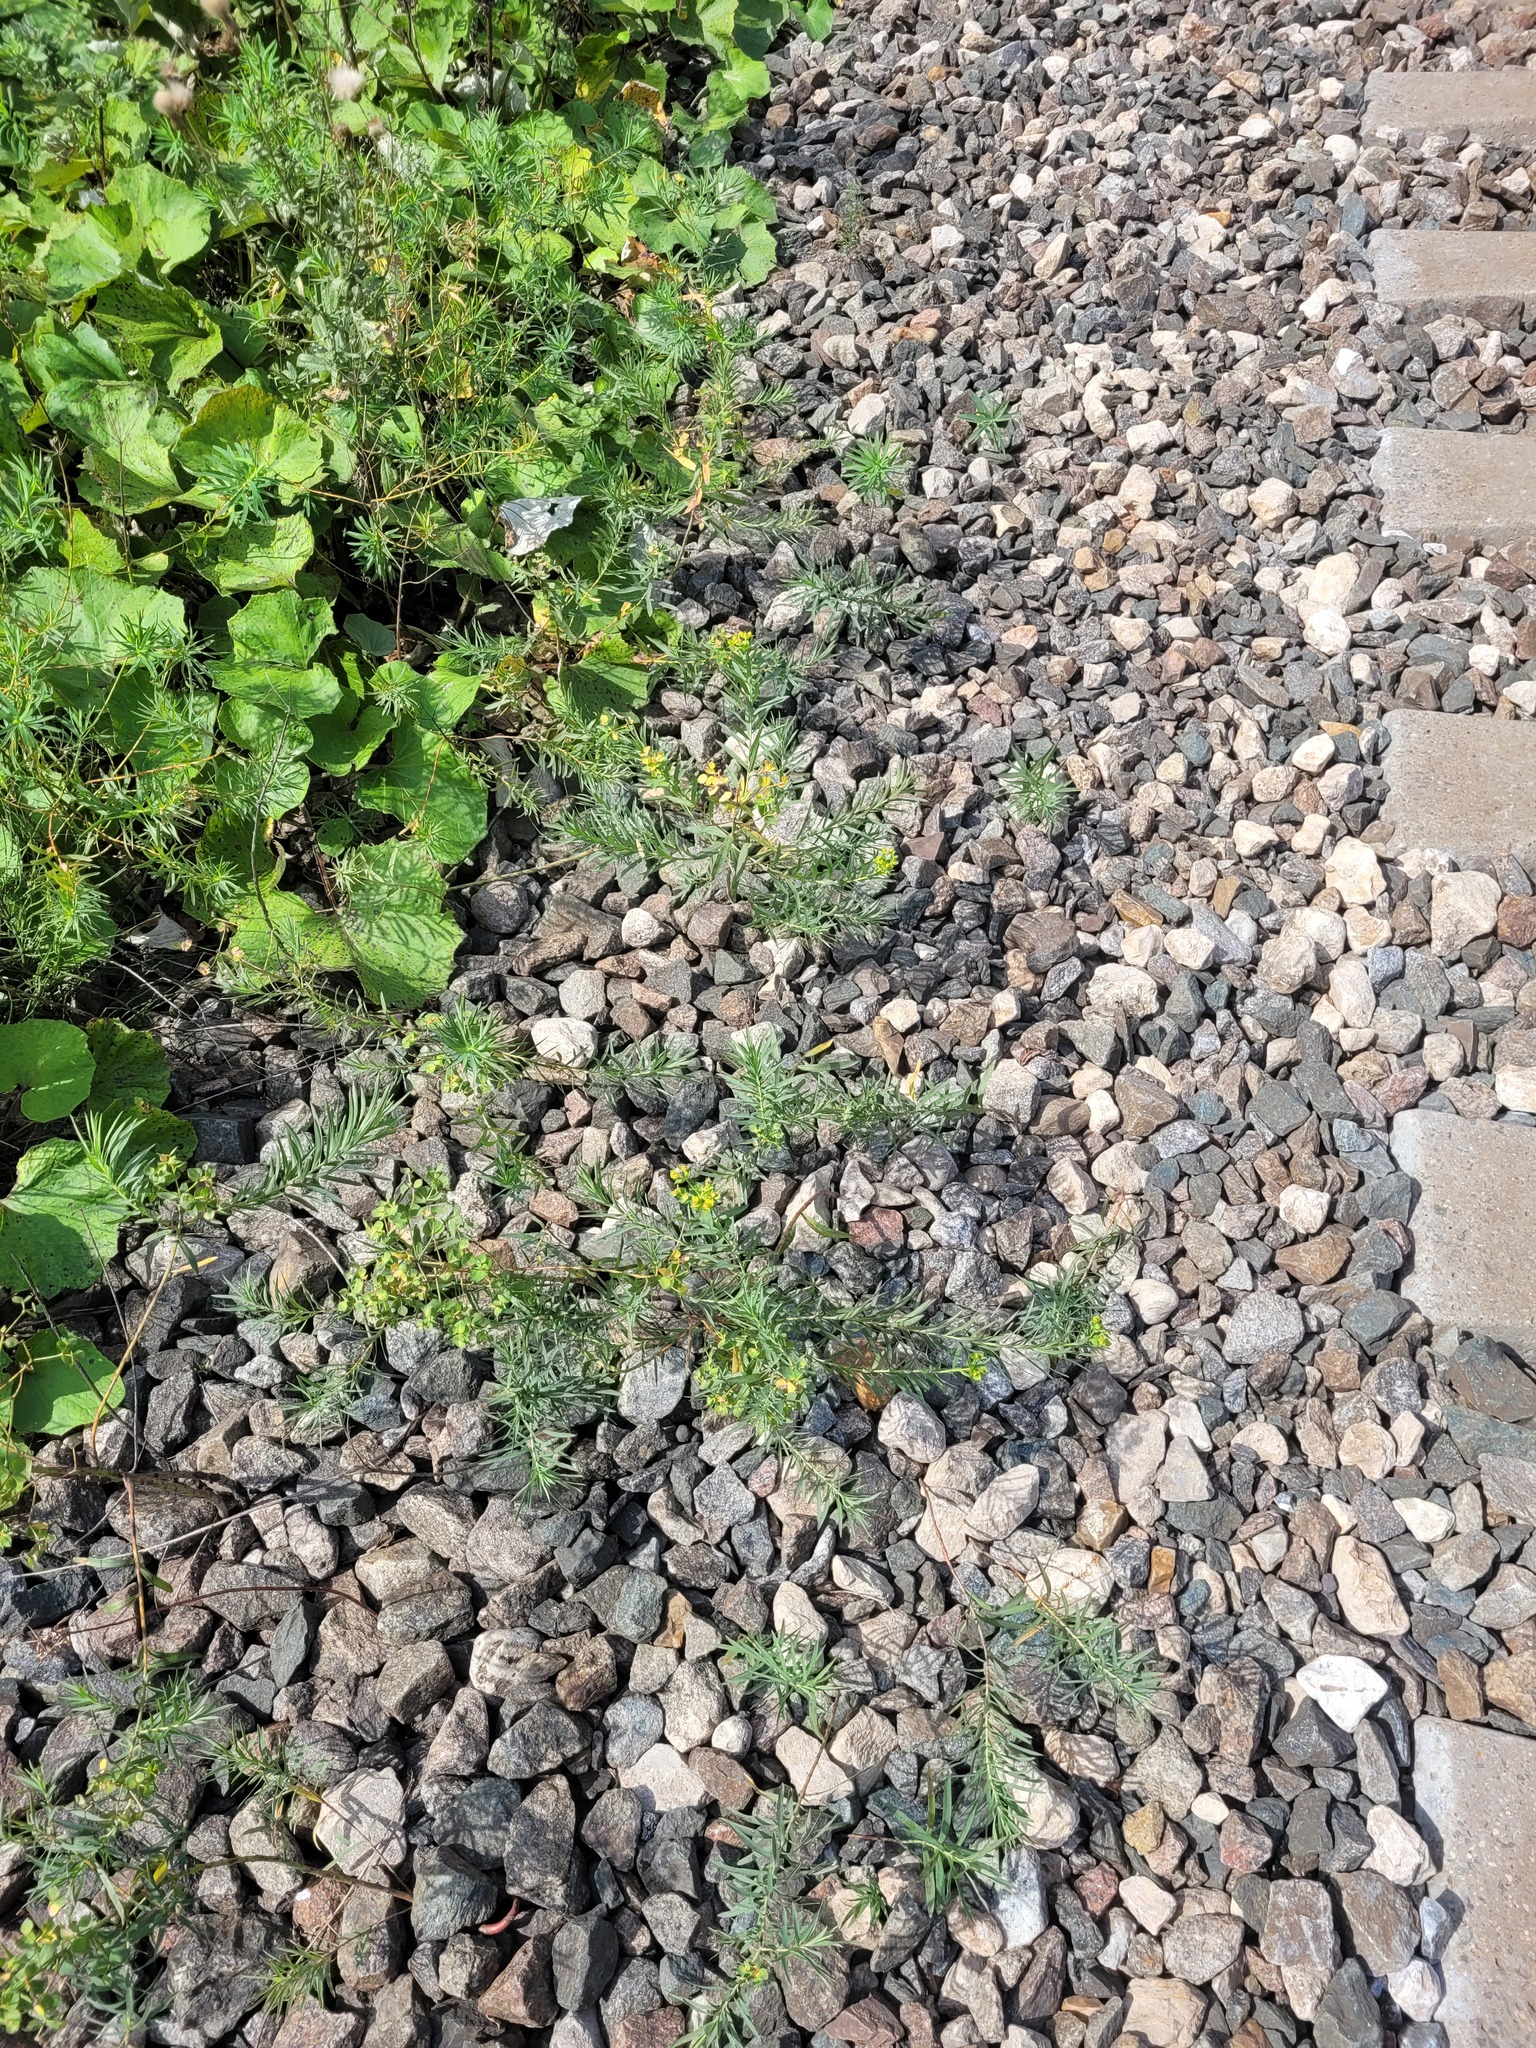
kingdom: Plantae
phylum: Tracheophyta
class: Magnoliopsida
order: Malpighiales
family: Euphorbiaceae
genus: Euphorbia
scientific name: Euphorbia virgata
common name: Leafy spurge
